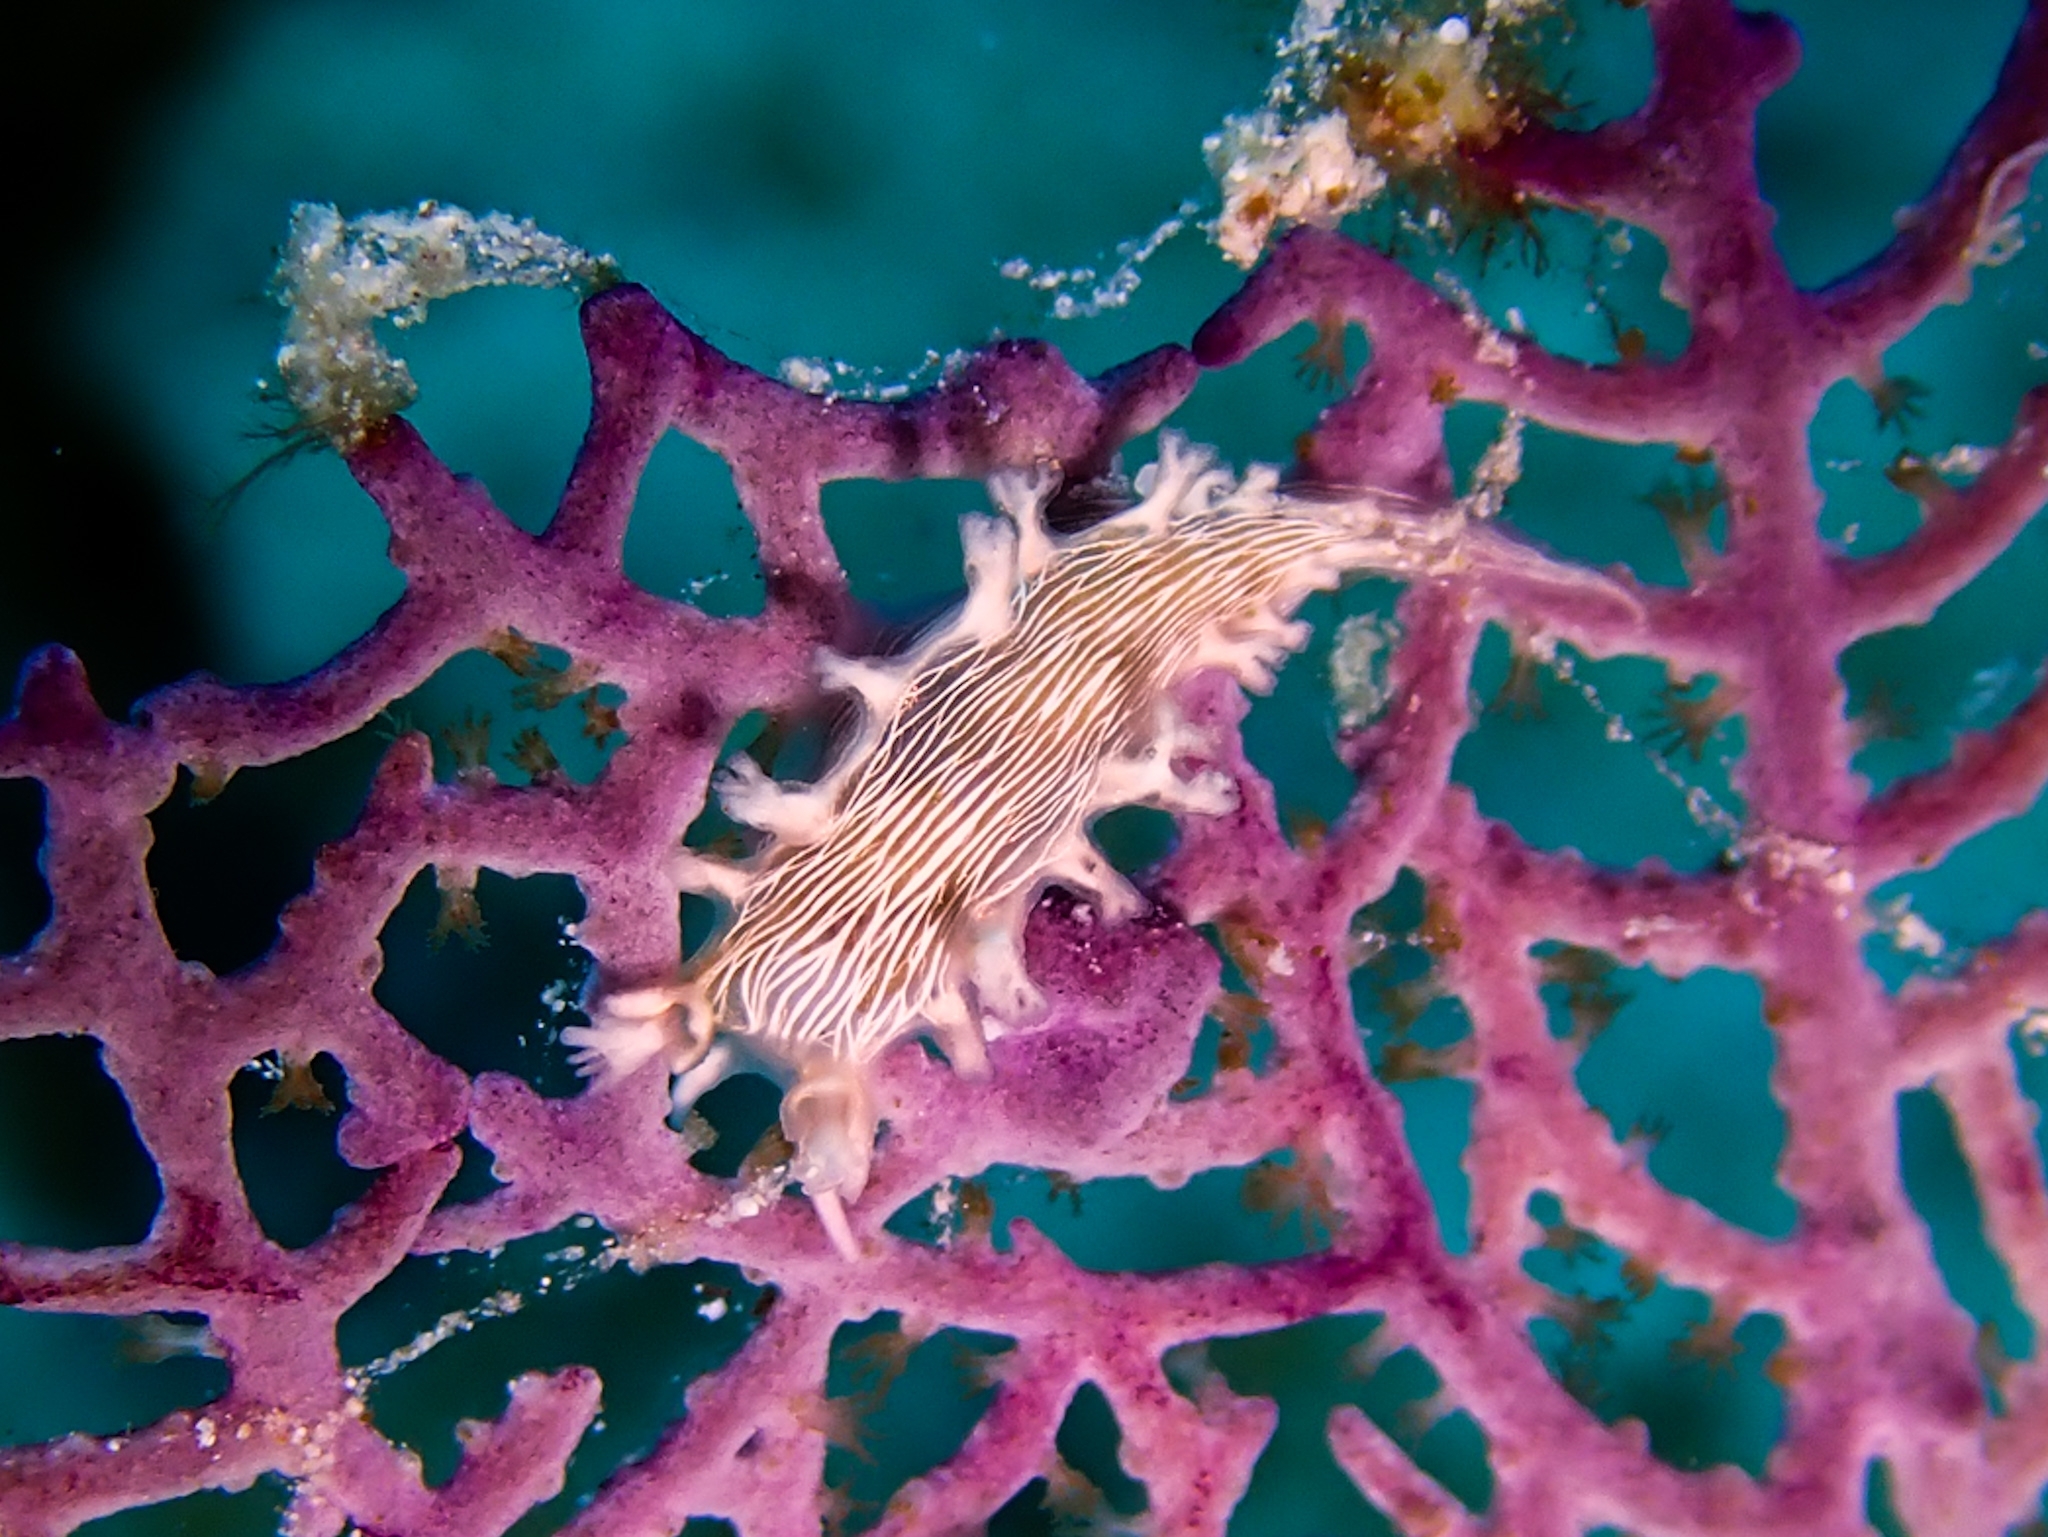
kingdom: Animalia
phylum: Mollusca
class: Gastropoda
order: Nudibranchia
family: Tritoniidae
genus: Tritonicula
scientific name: Tritonicula hamnerorum
